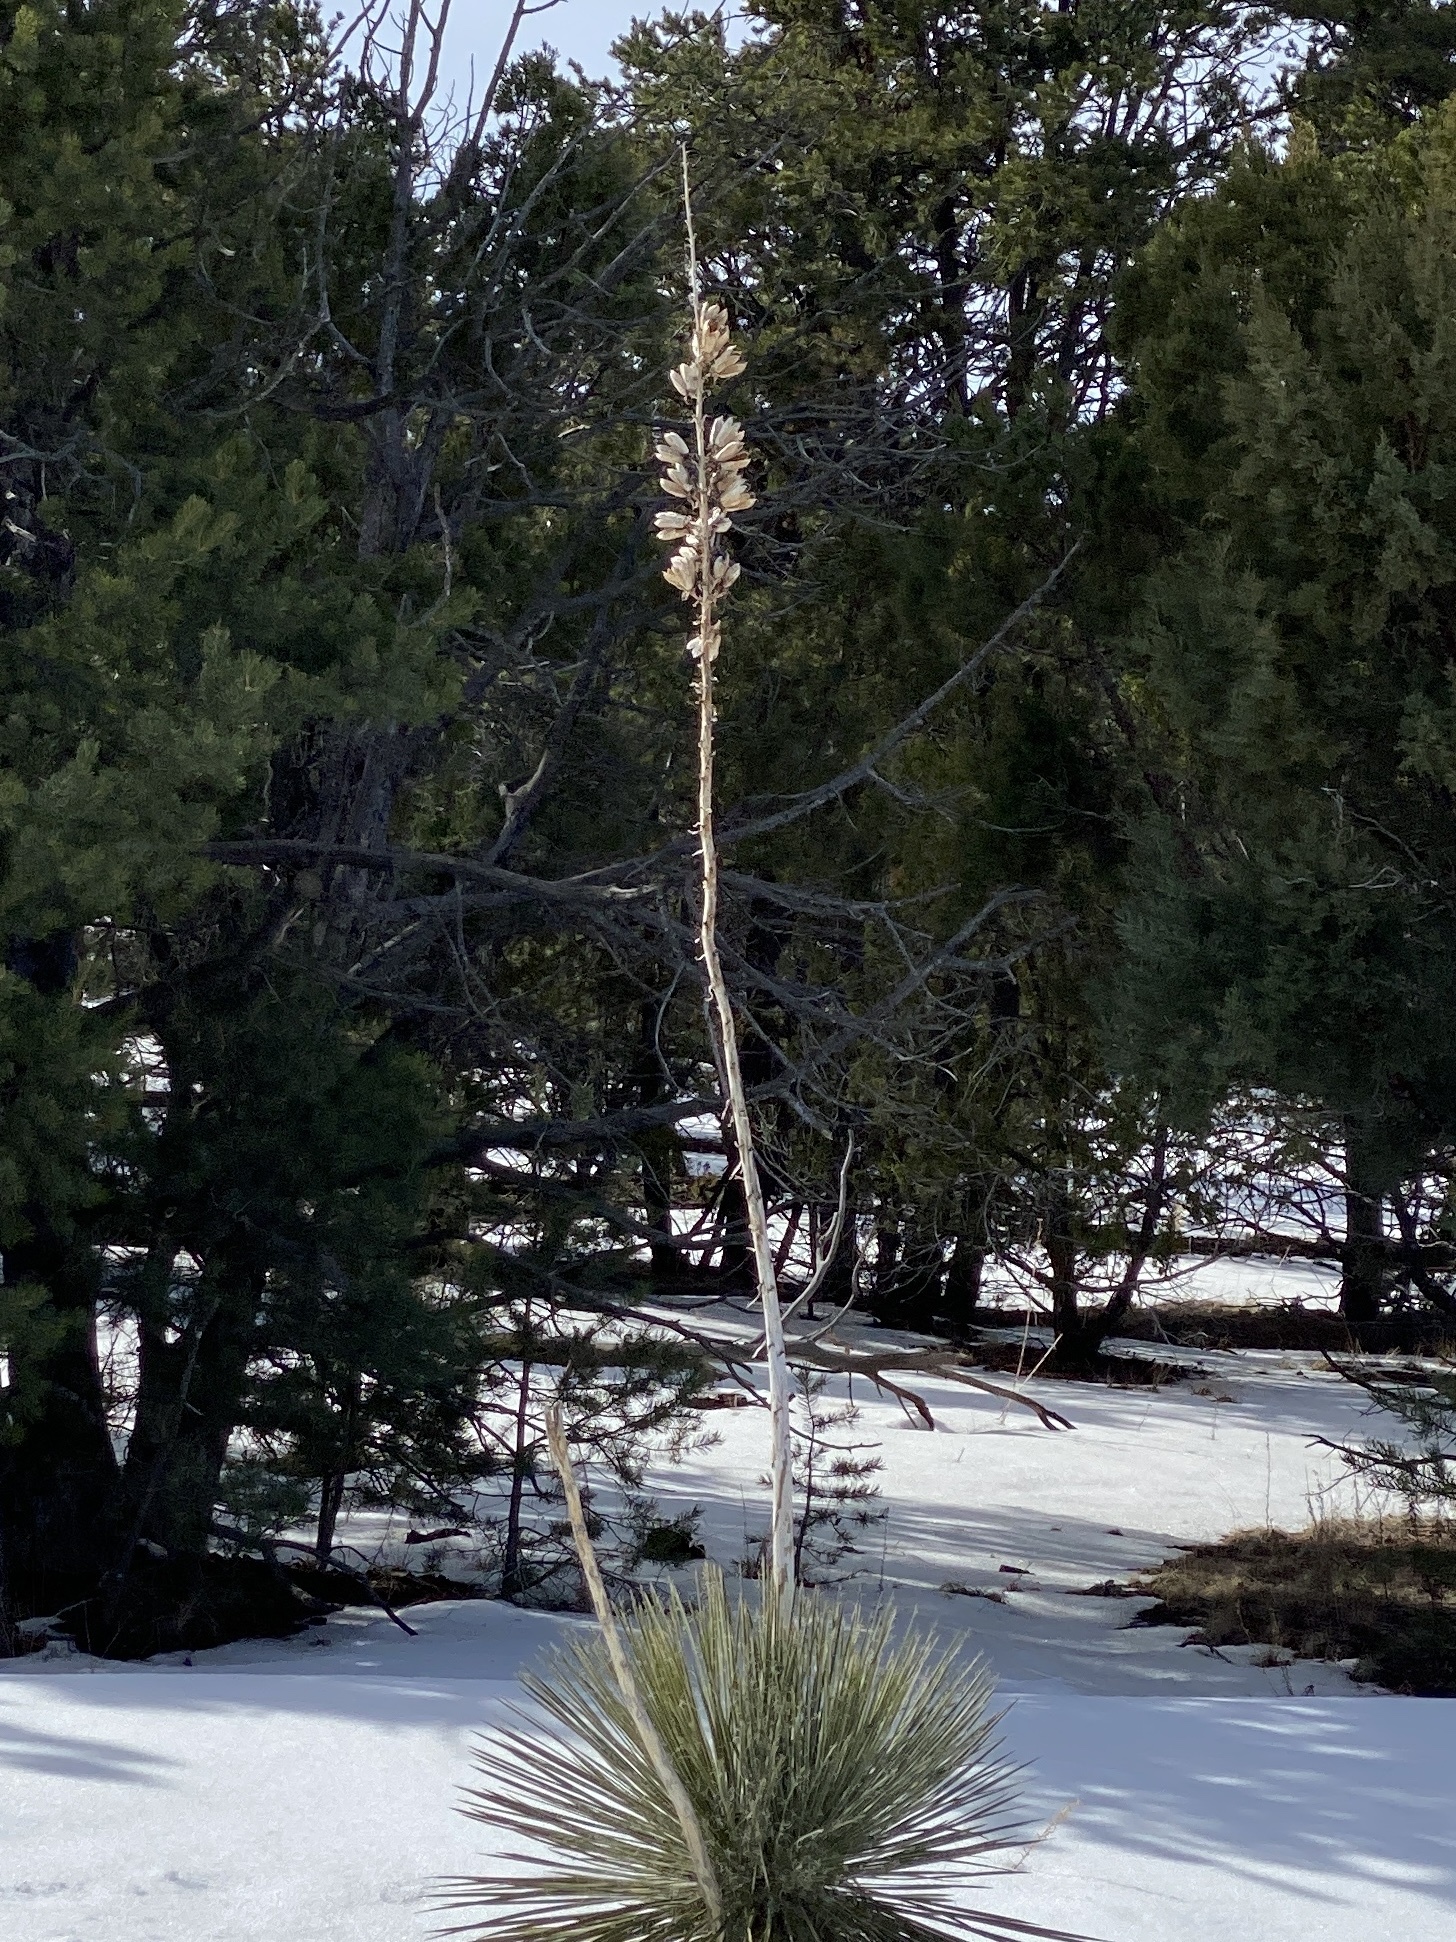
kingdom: Plantae
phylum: Tracheophyta
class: Liliopsida
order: Asparagales
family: Asparagaceae
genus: Yucca
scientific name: Yucca elata
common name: Palmella
